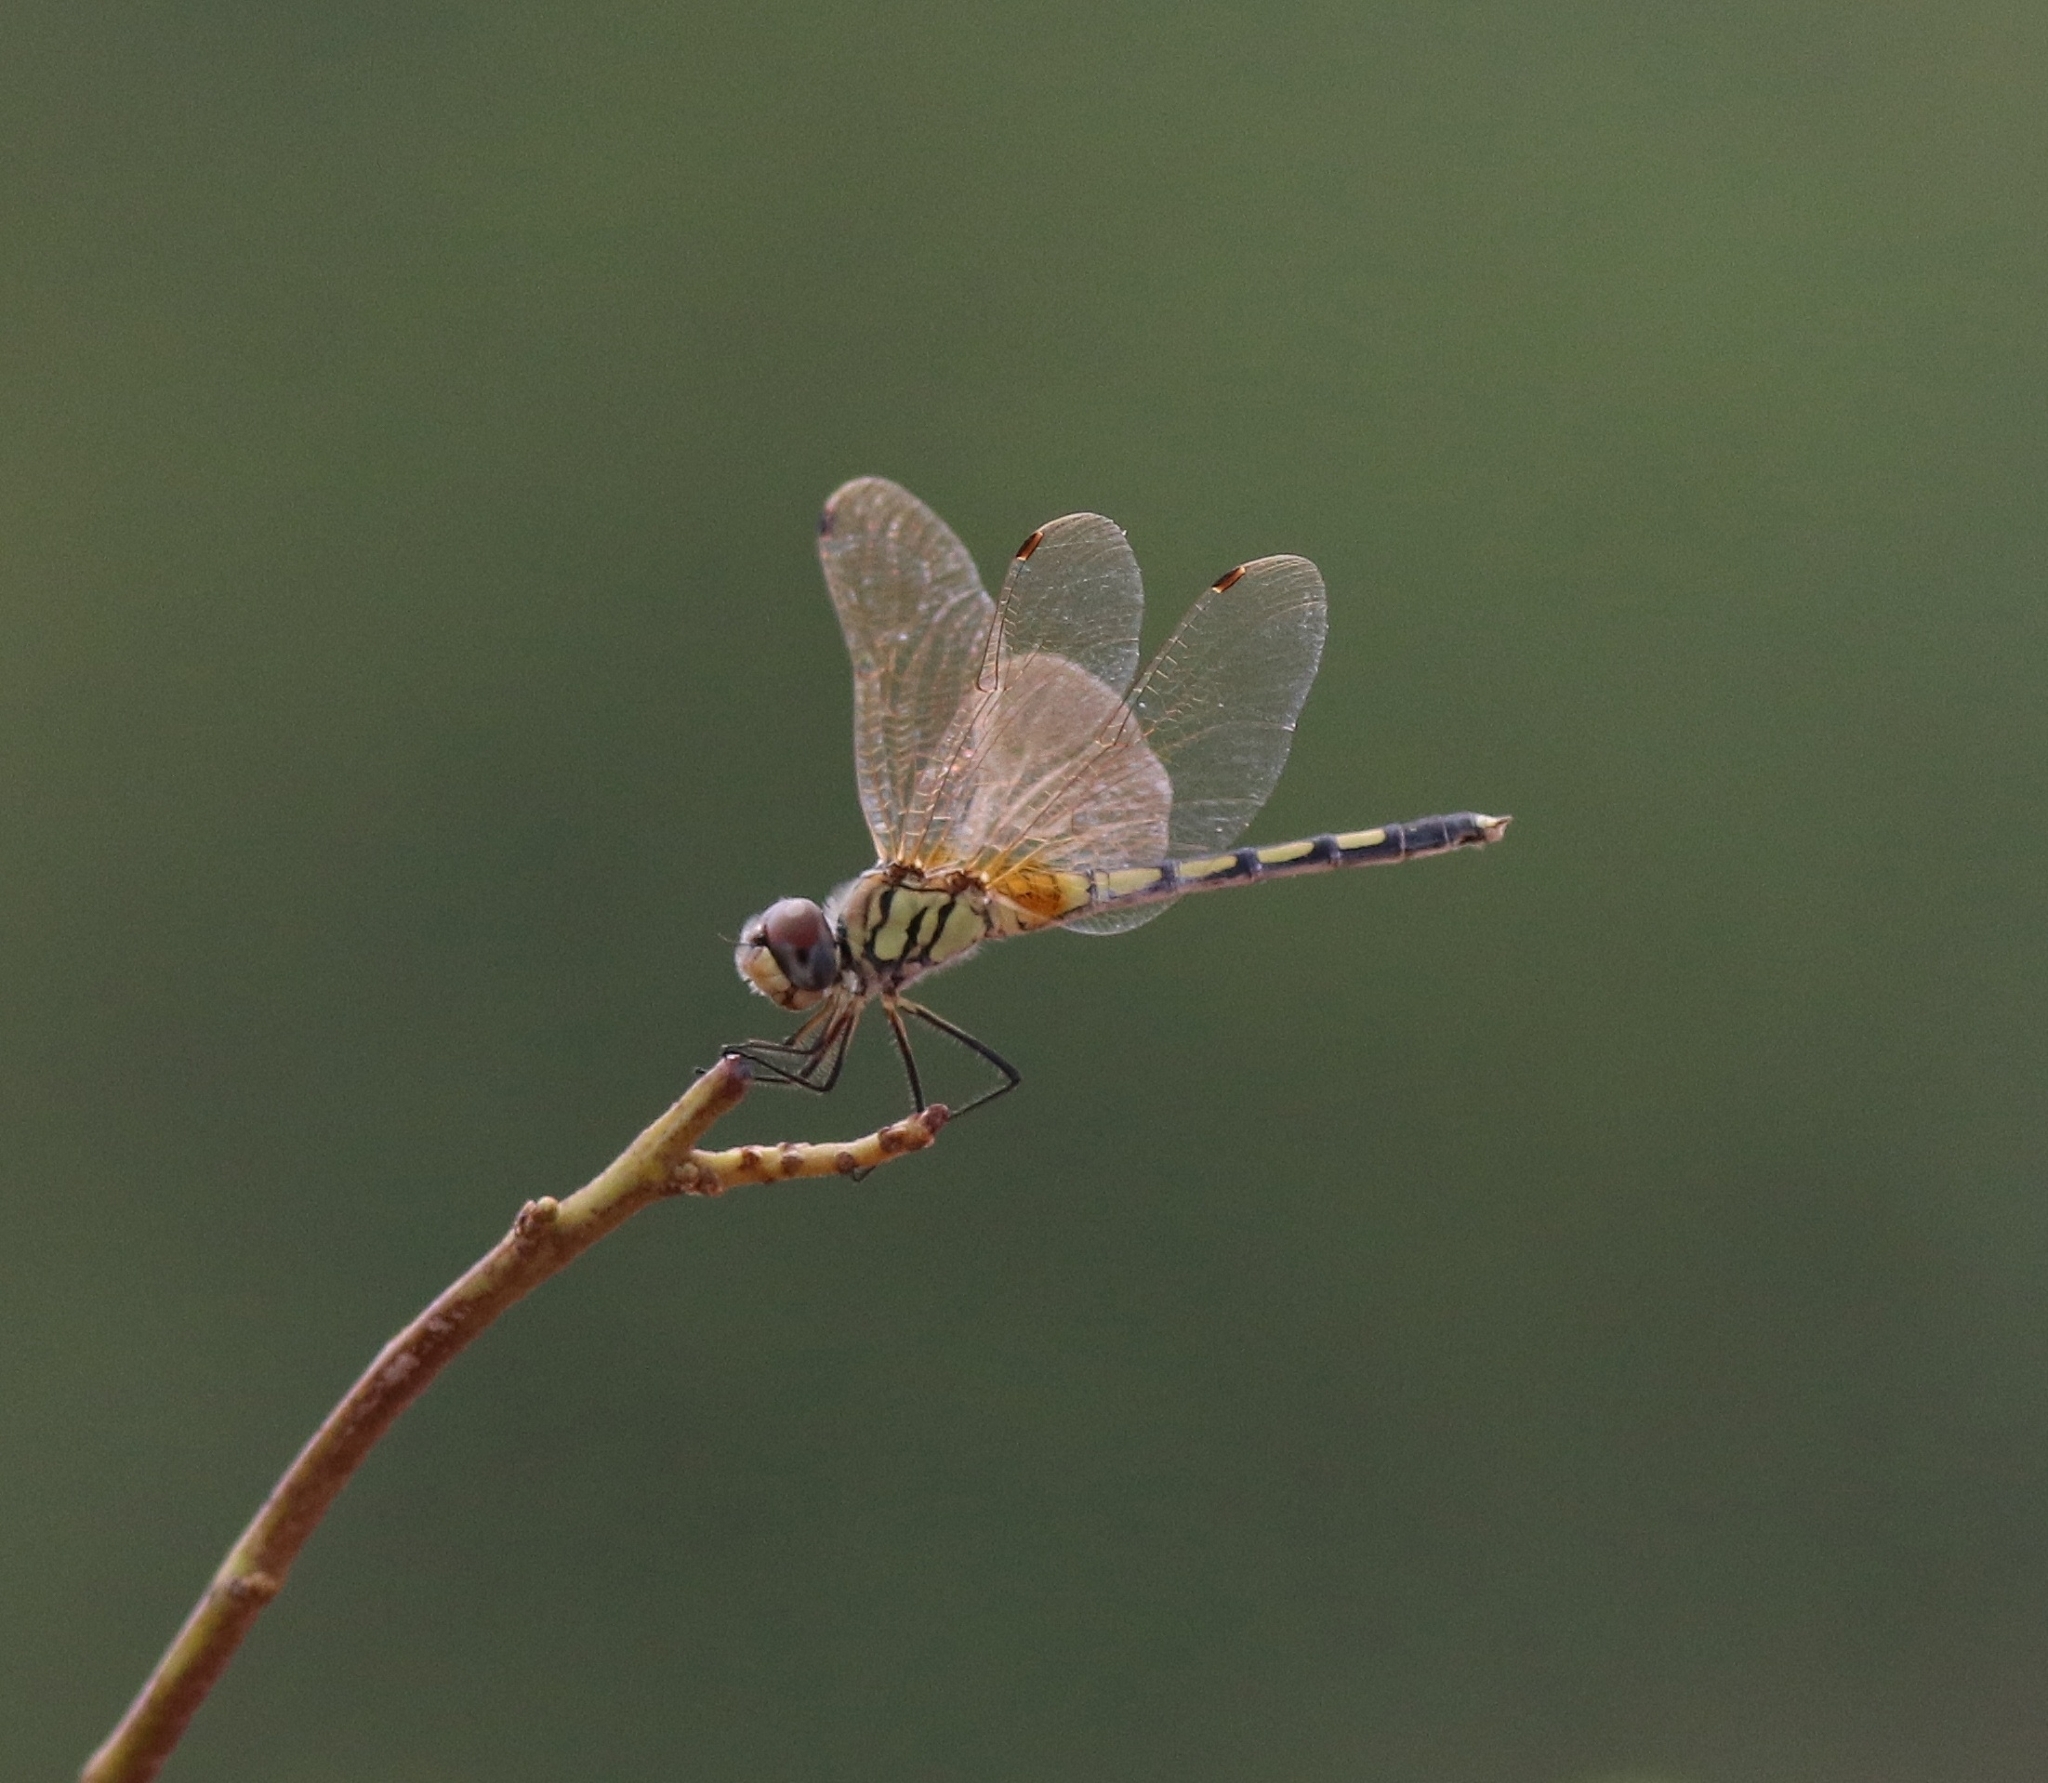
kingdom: Animalia
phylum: Arthropoda
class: Insecta
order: Odonata
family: Libellulidae
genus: Trithemis
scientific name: Trithemis pallidinervis
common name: Dancing dropwing
